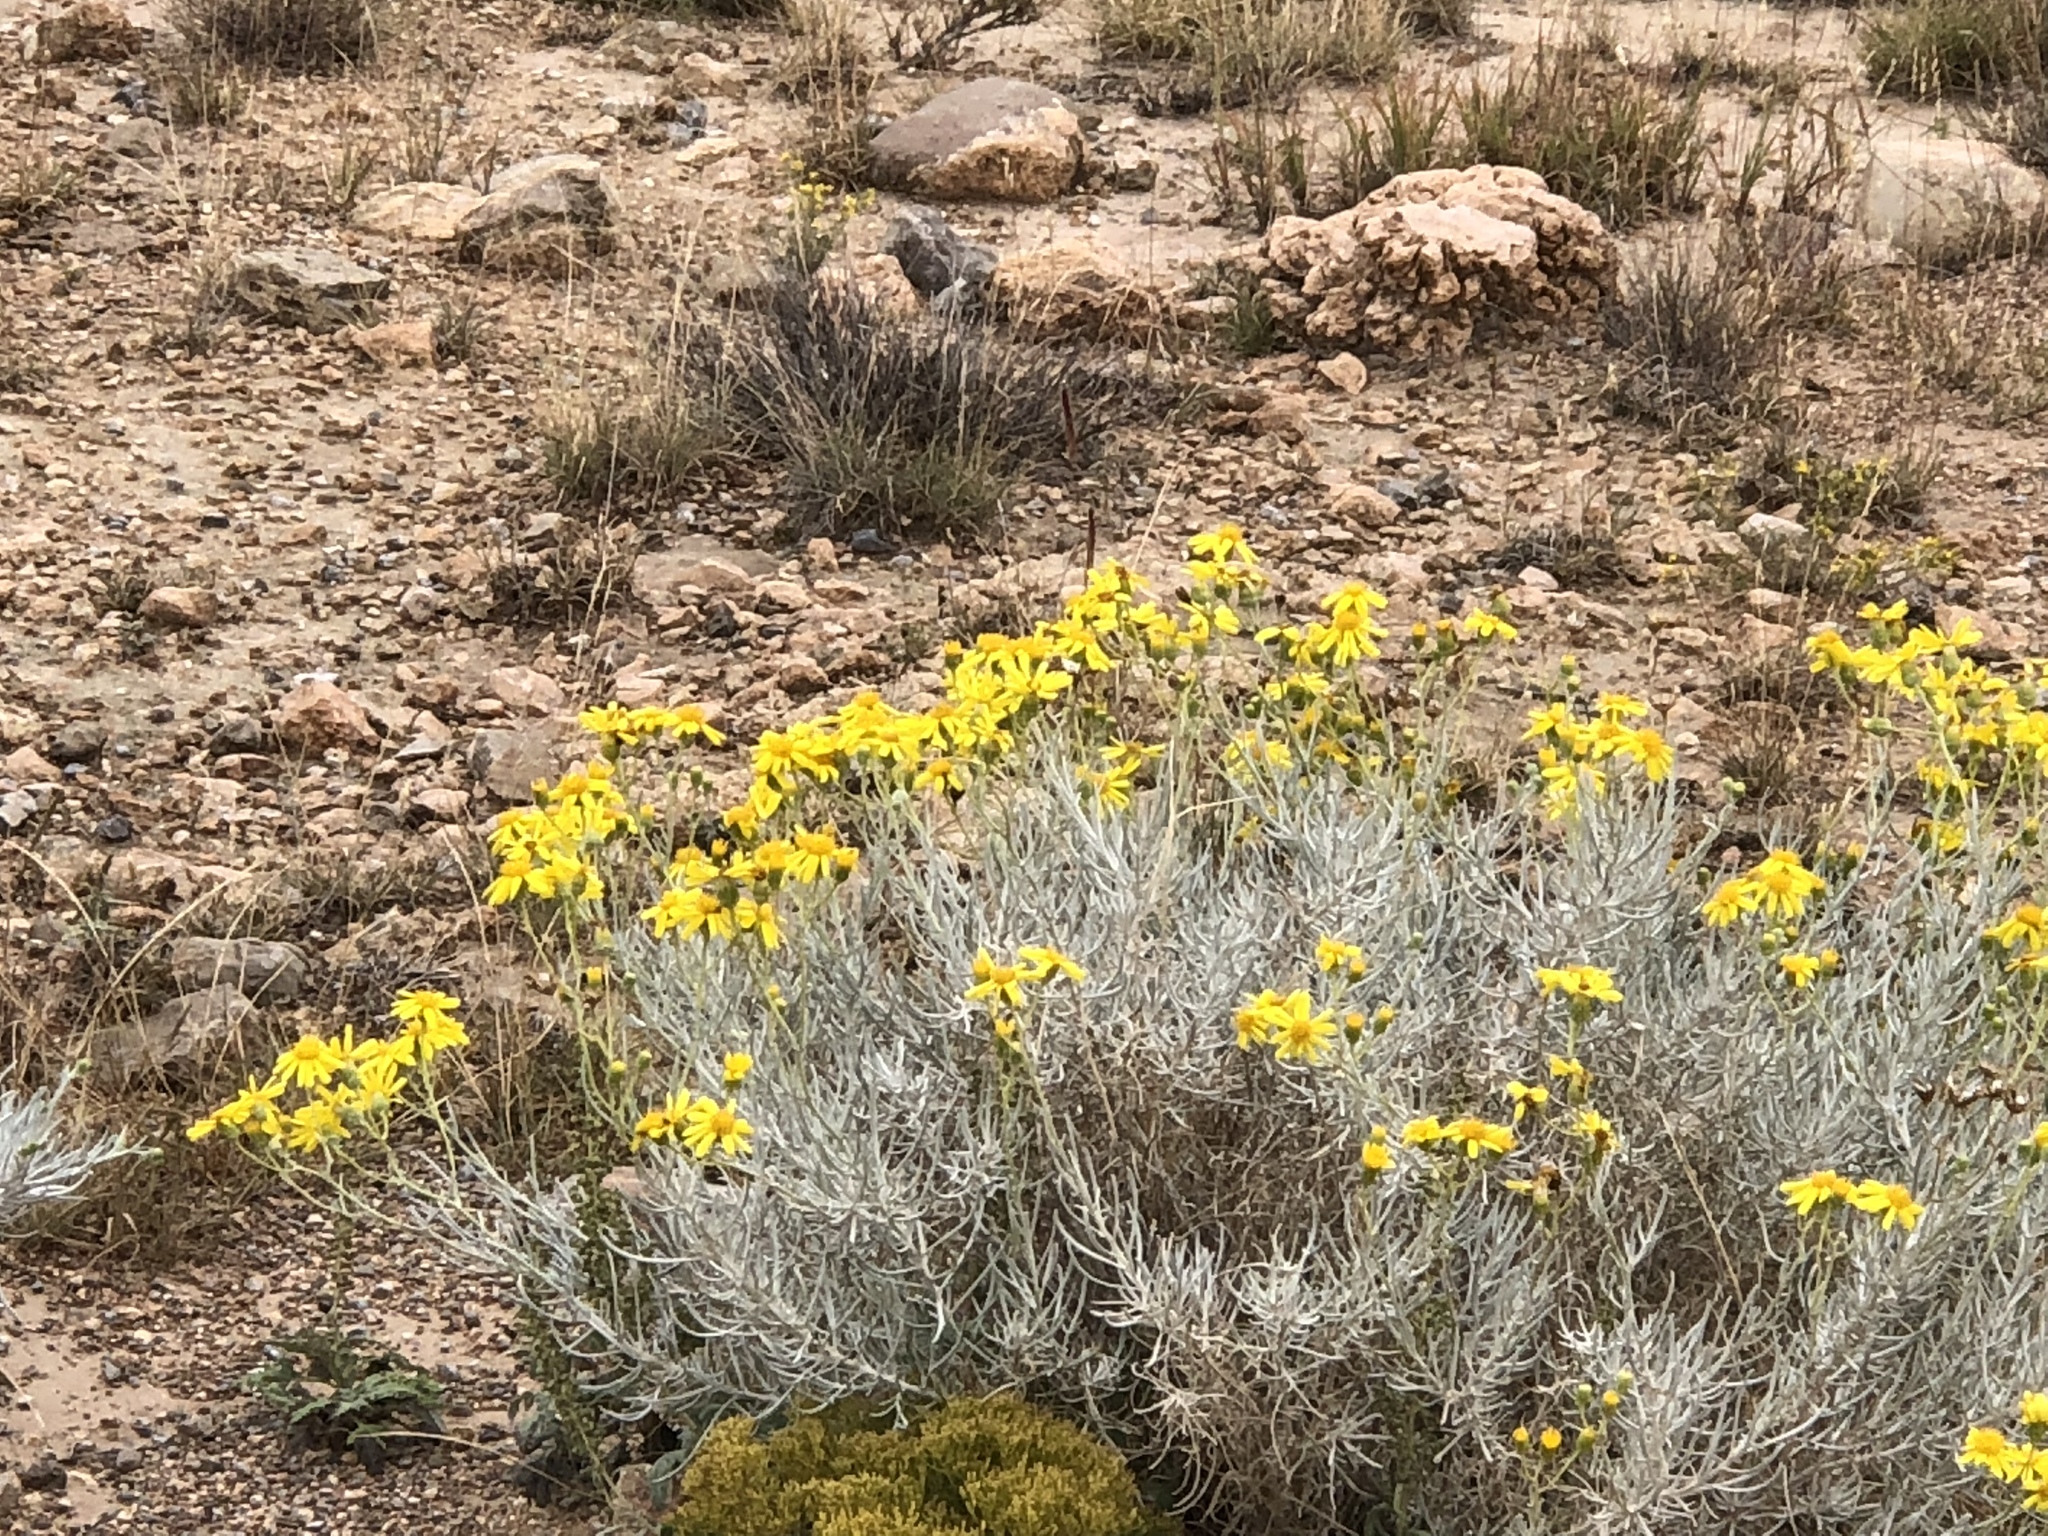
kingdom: Plantae
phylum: Tracheophyta
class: Magnoliopsida
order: Asterales
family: Asteraceae
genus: Senecio
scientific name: Senecio flaccidus
